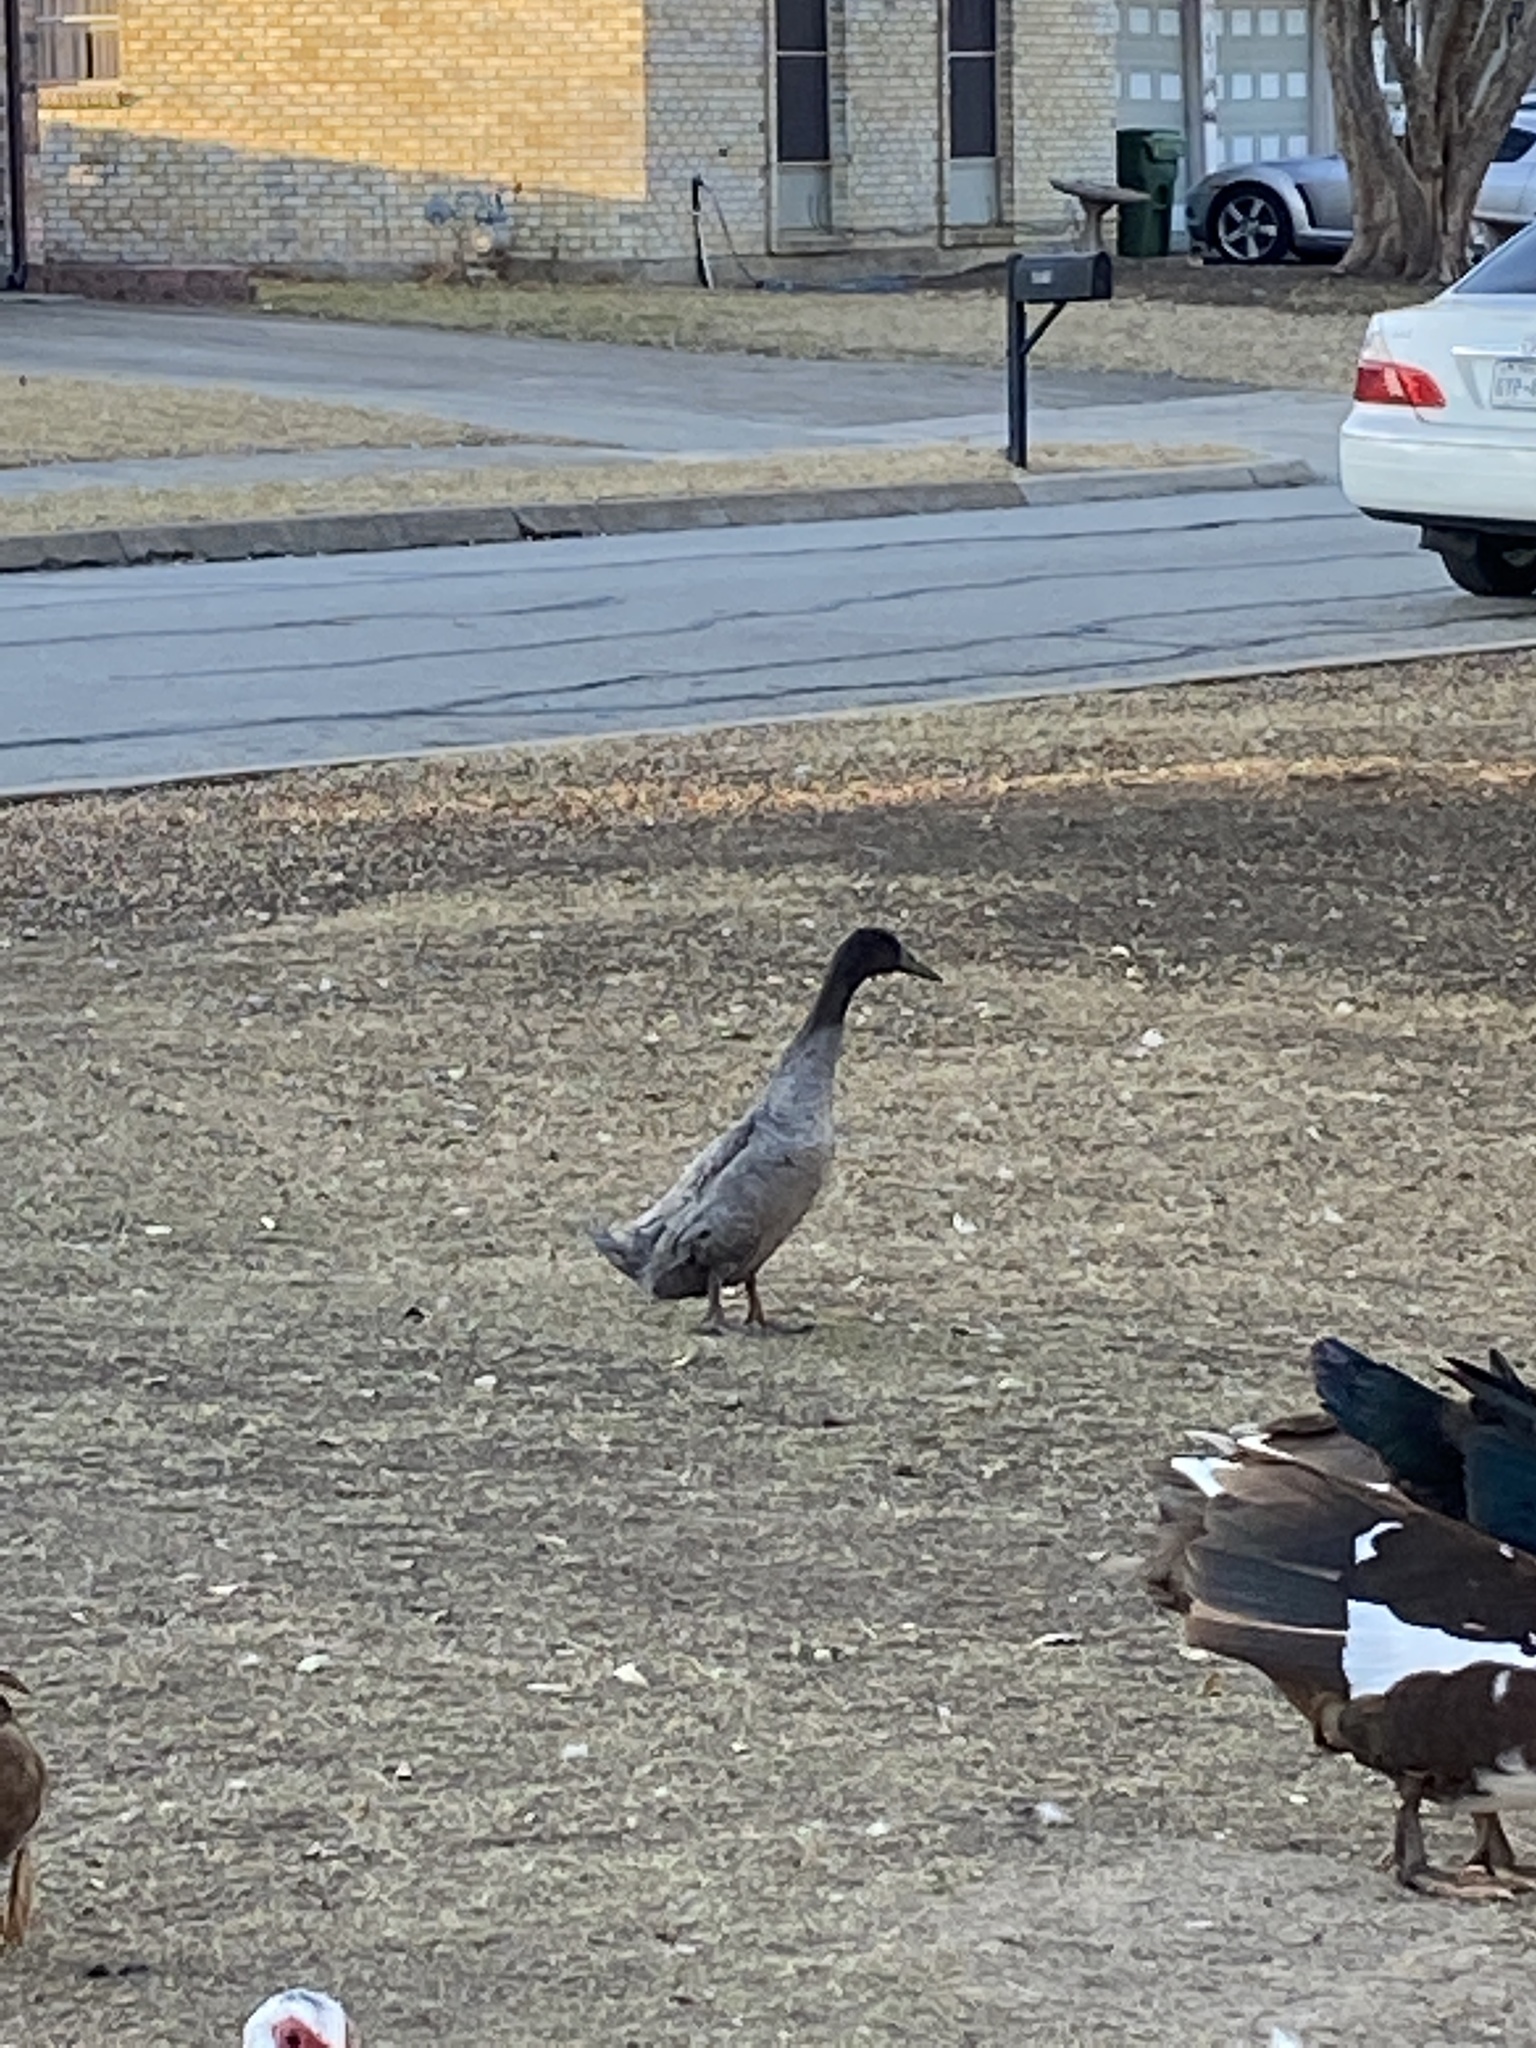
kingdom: Animalia
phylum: Chordata
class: Aves
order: Anseriformes
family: Anatidae
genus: Anas
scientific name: Anas platyrhynchos
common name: Mallard
